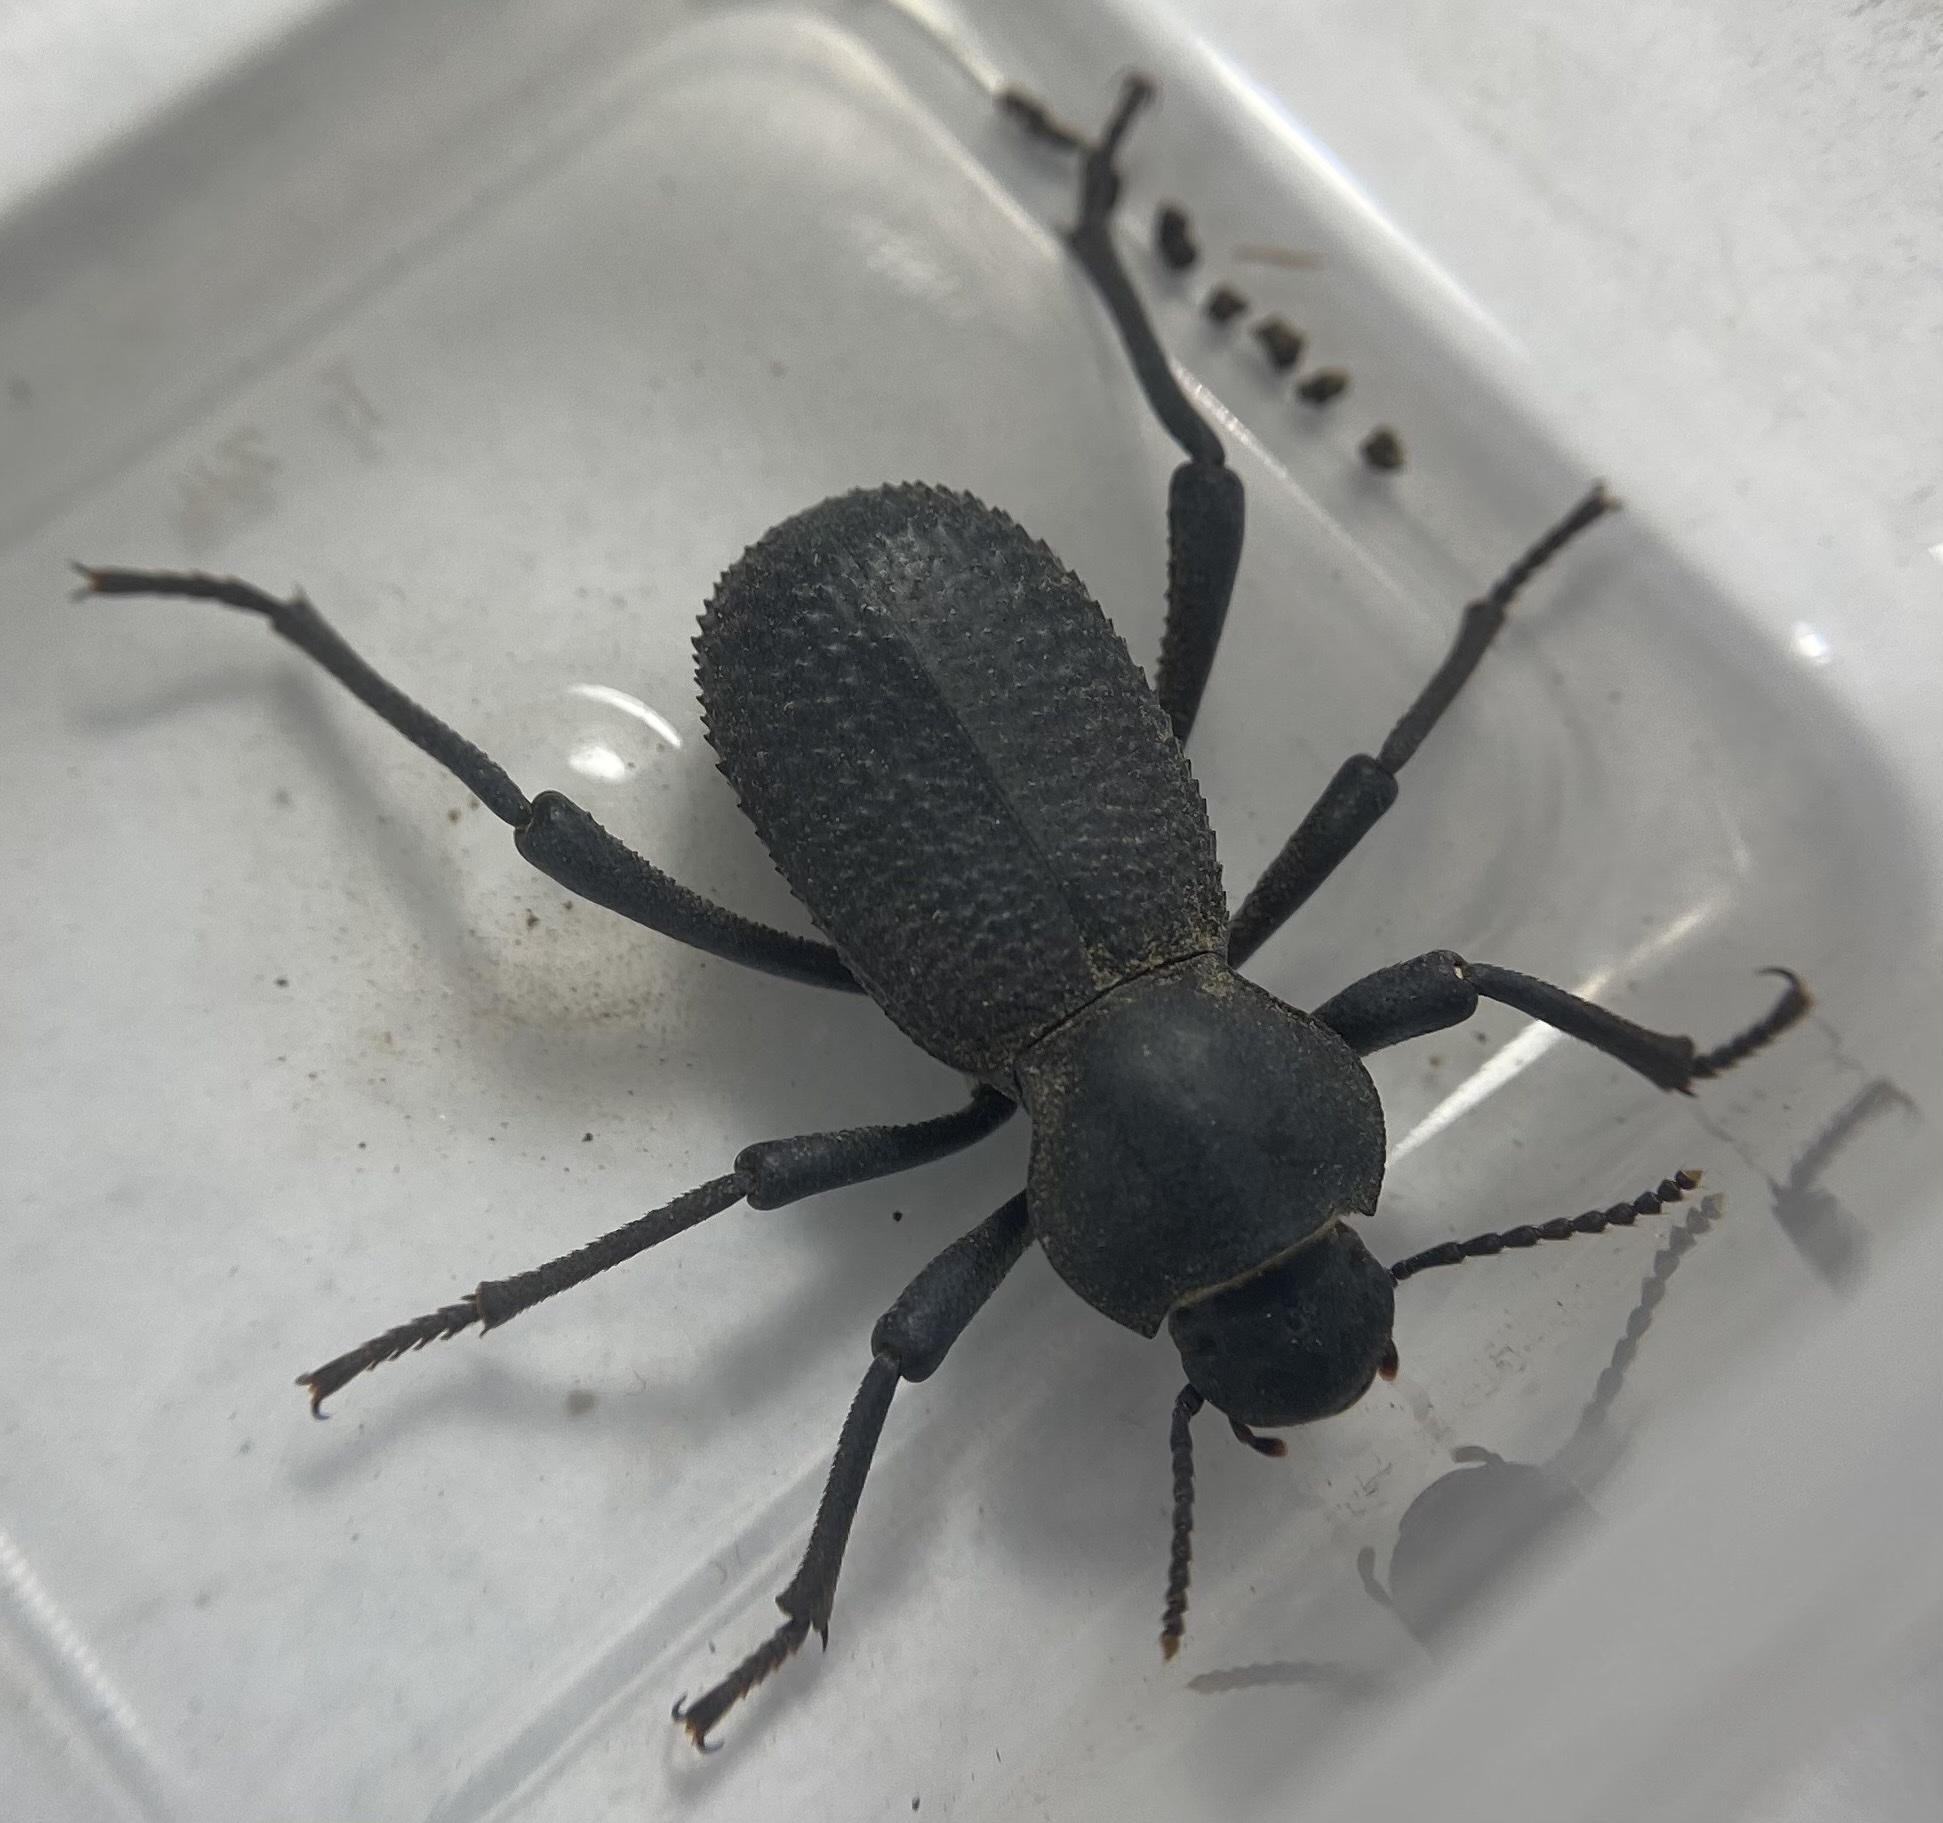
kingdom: Animalia
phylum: Arthropoda
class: Insecta
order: Coleoptera
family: Tenebrionidae
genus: Cryptoglossa
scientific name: Cryptoglossa muricata
